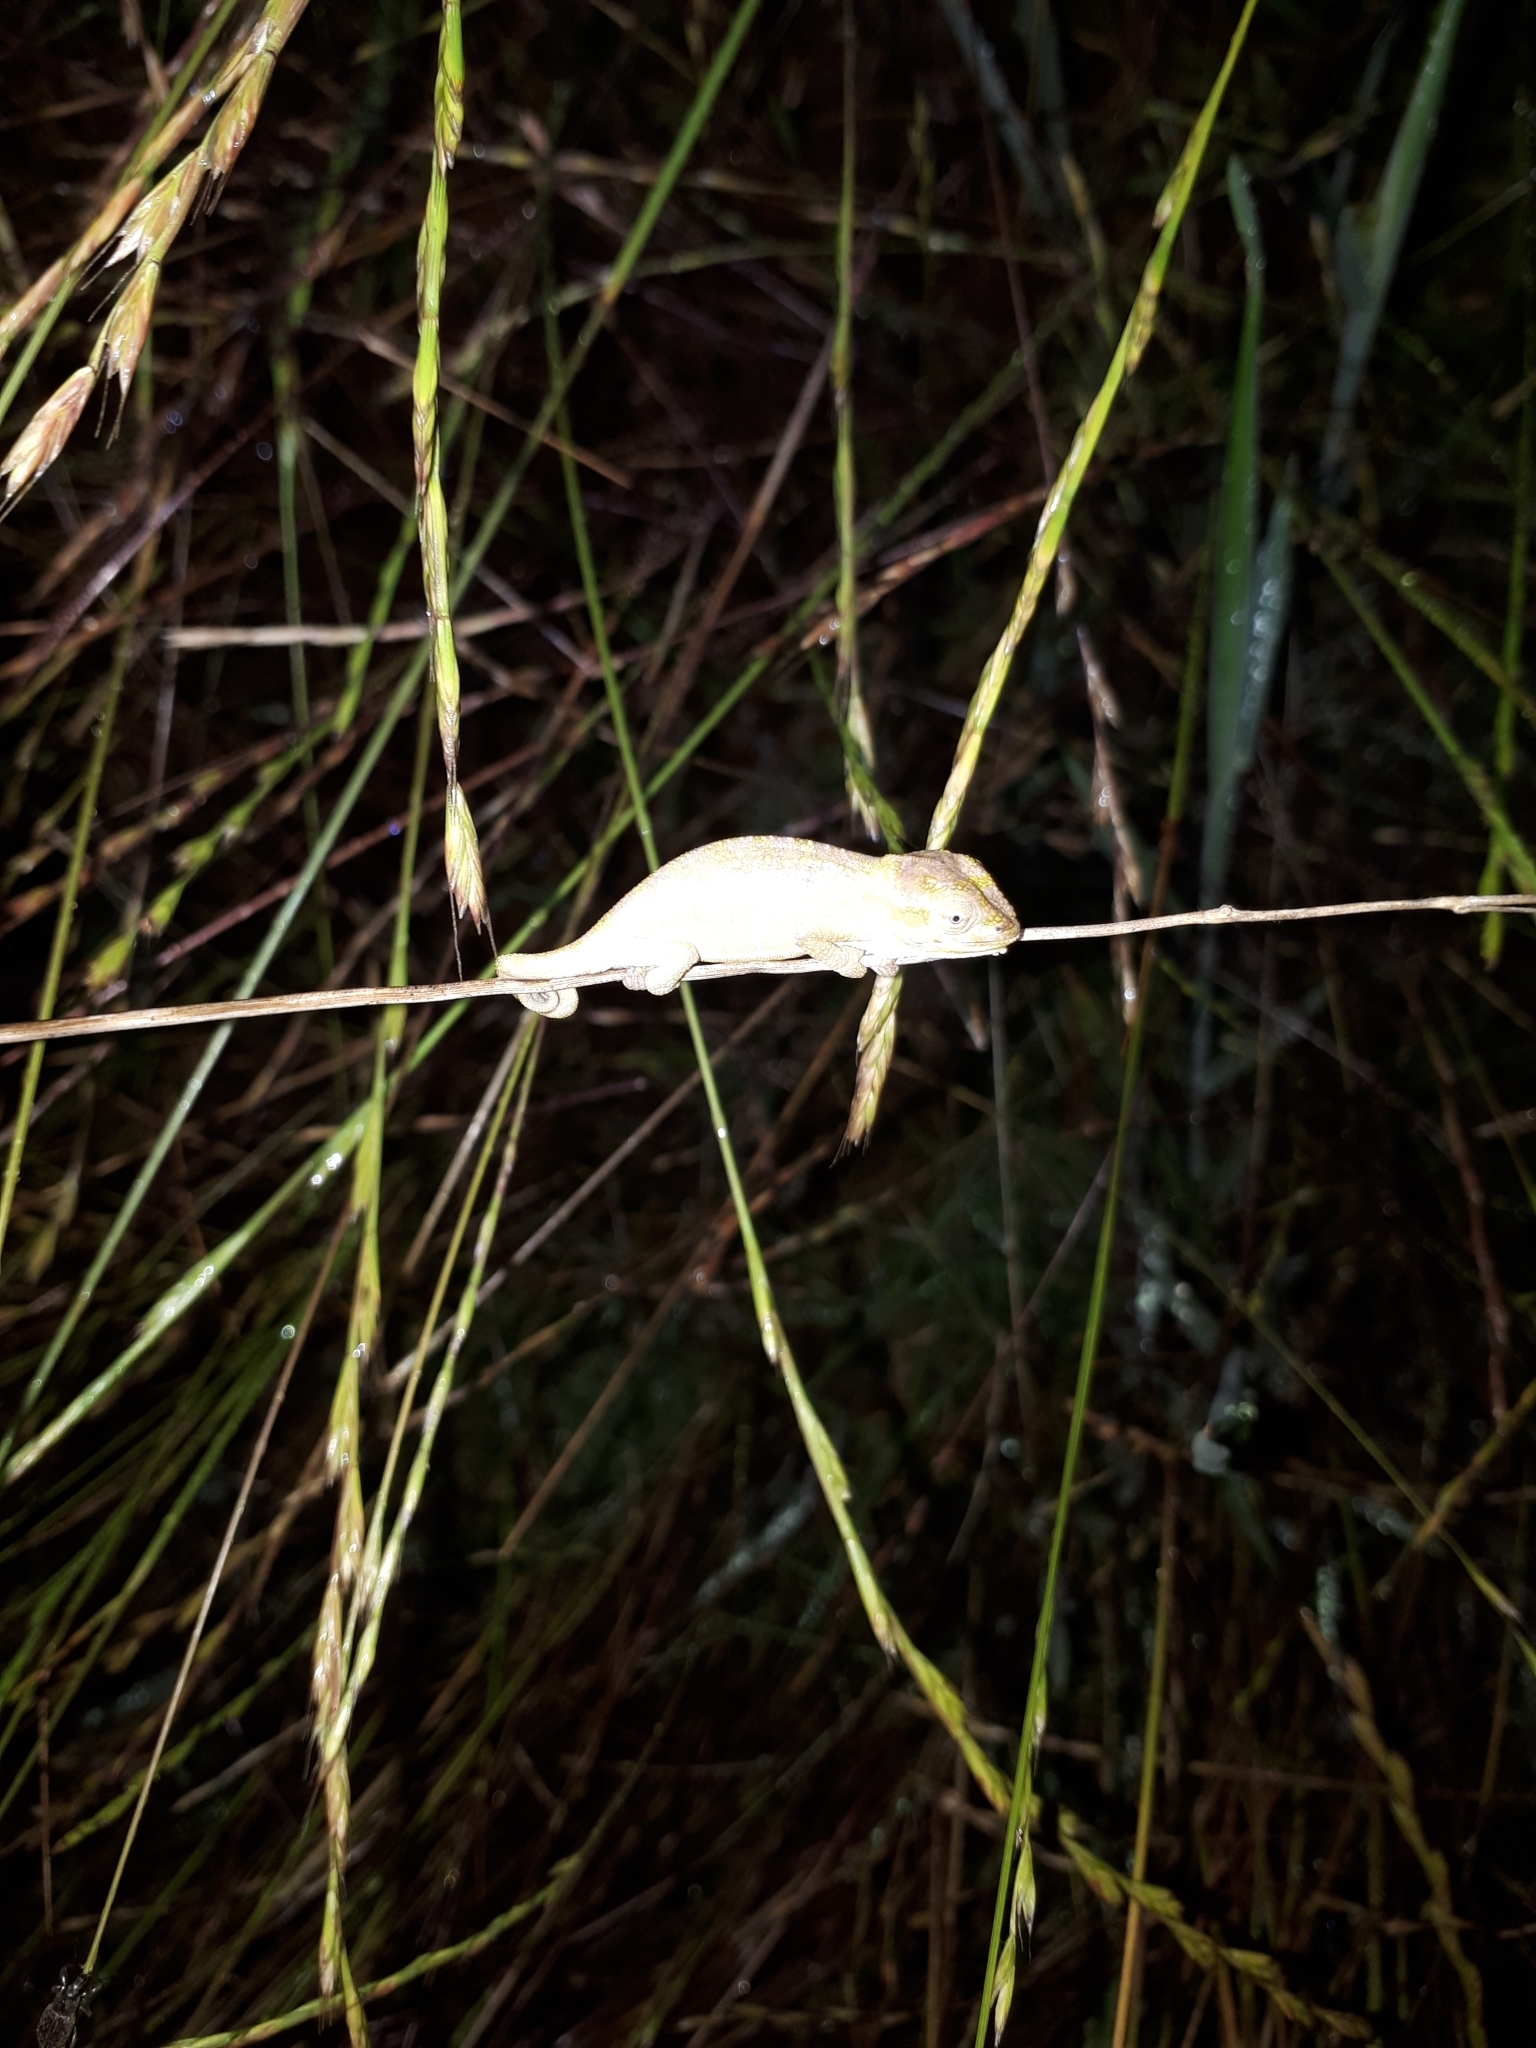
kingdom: Animalia
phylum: Chordata
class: Squamata
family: Chamaeleonidae
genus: Bradypodion
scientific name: Bradypodion pumilum
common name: Cape dwarf chameleon
